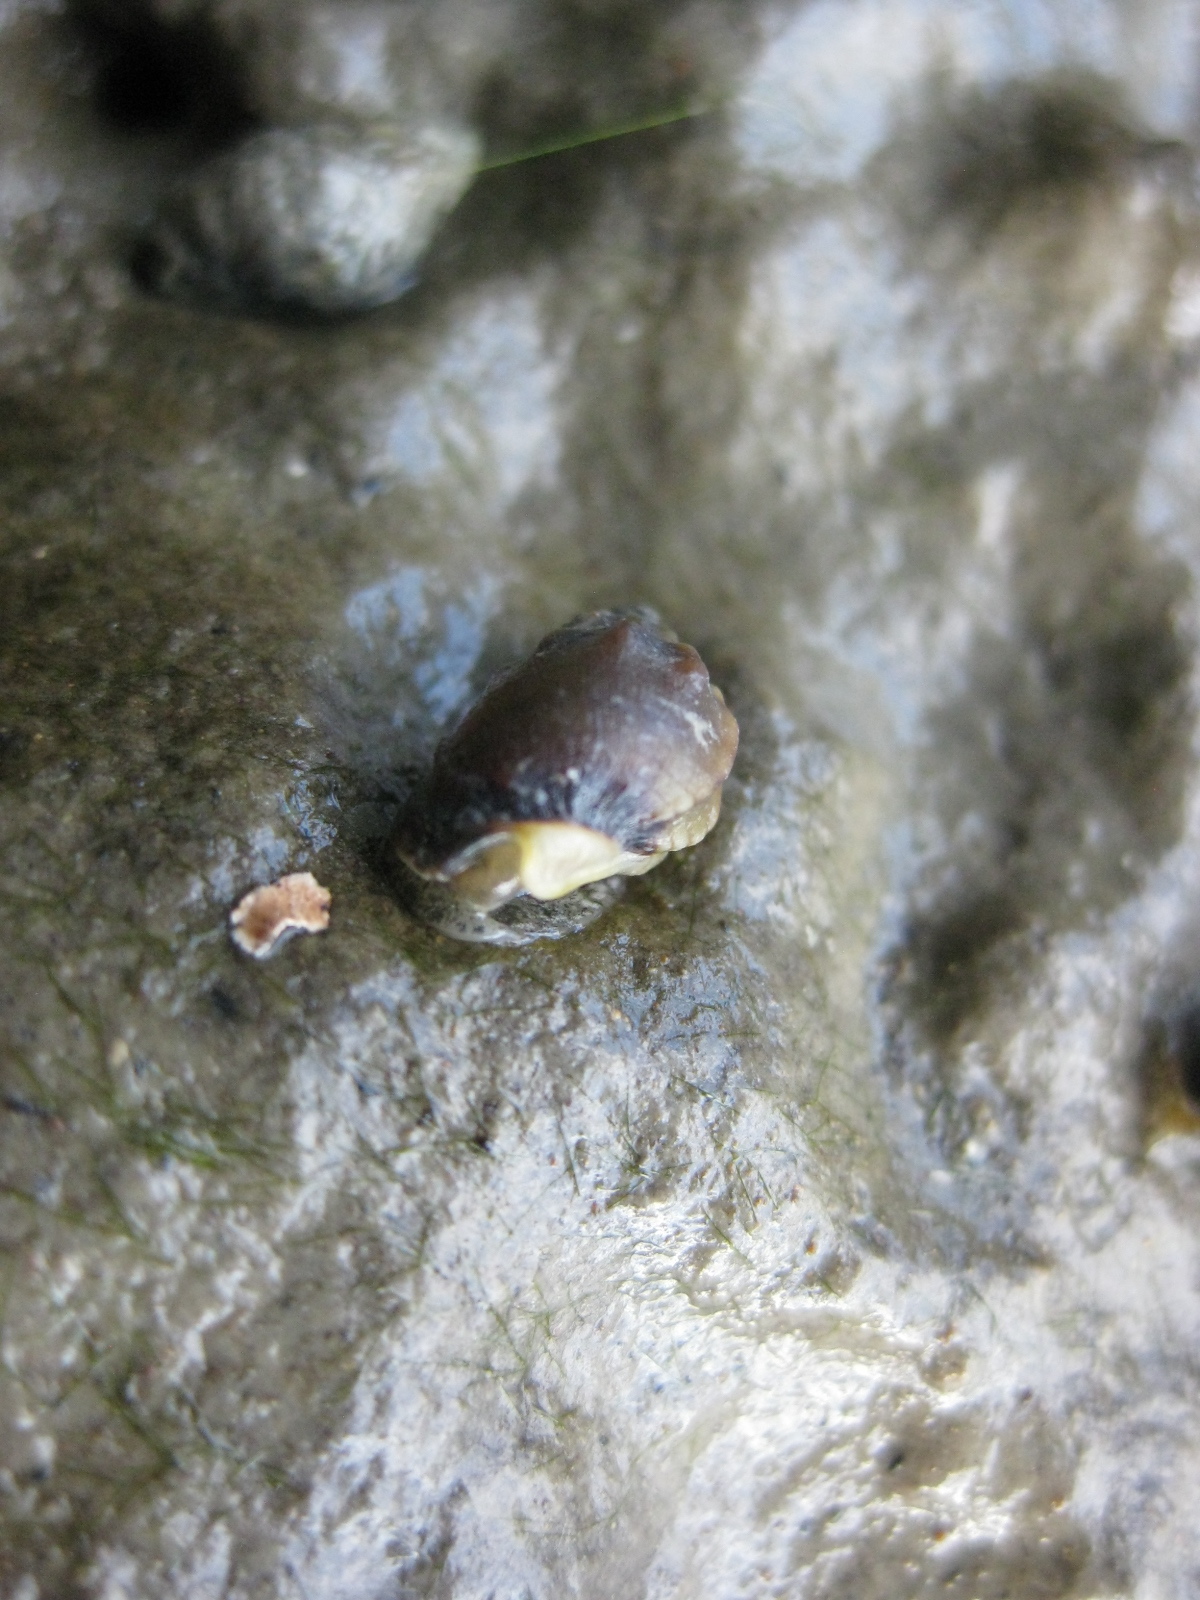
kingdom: Animalia
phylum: Mollusca
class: Gastropoda
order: Neogastropoda
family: Nassariidae
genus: Tritia
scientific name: Tritia burchardi
